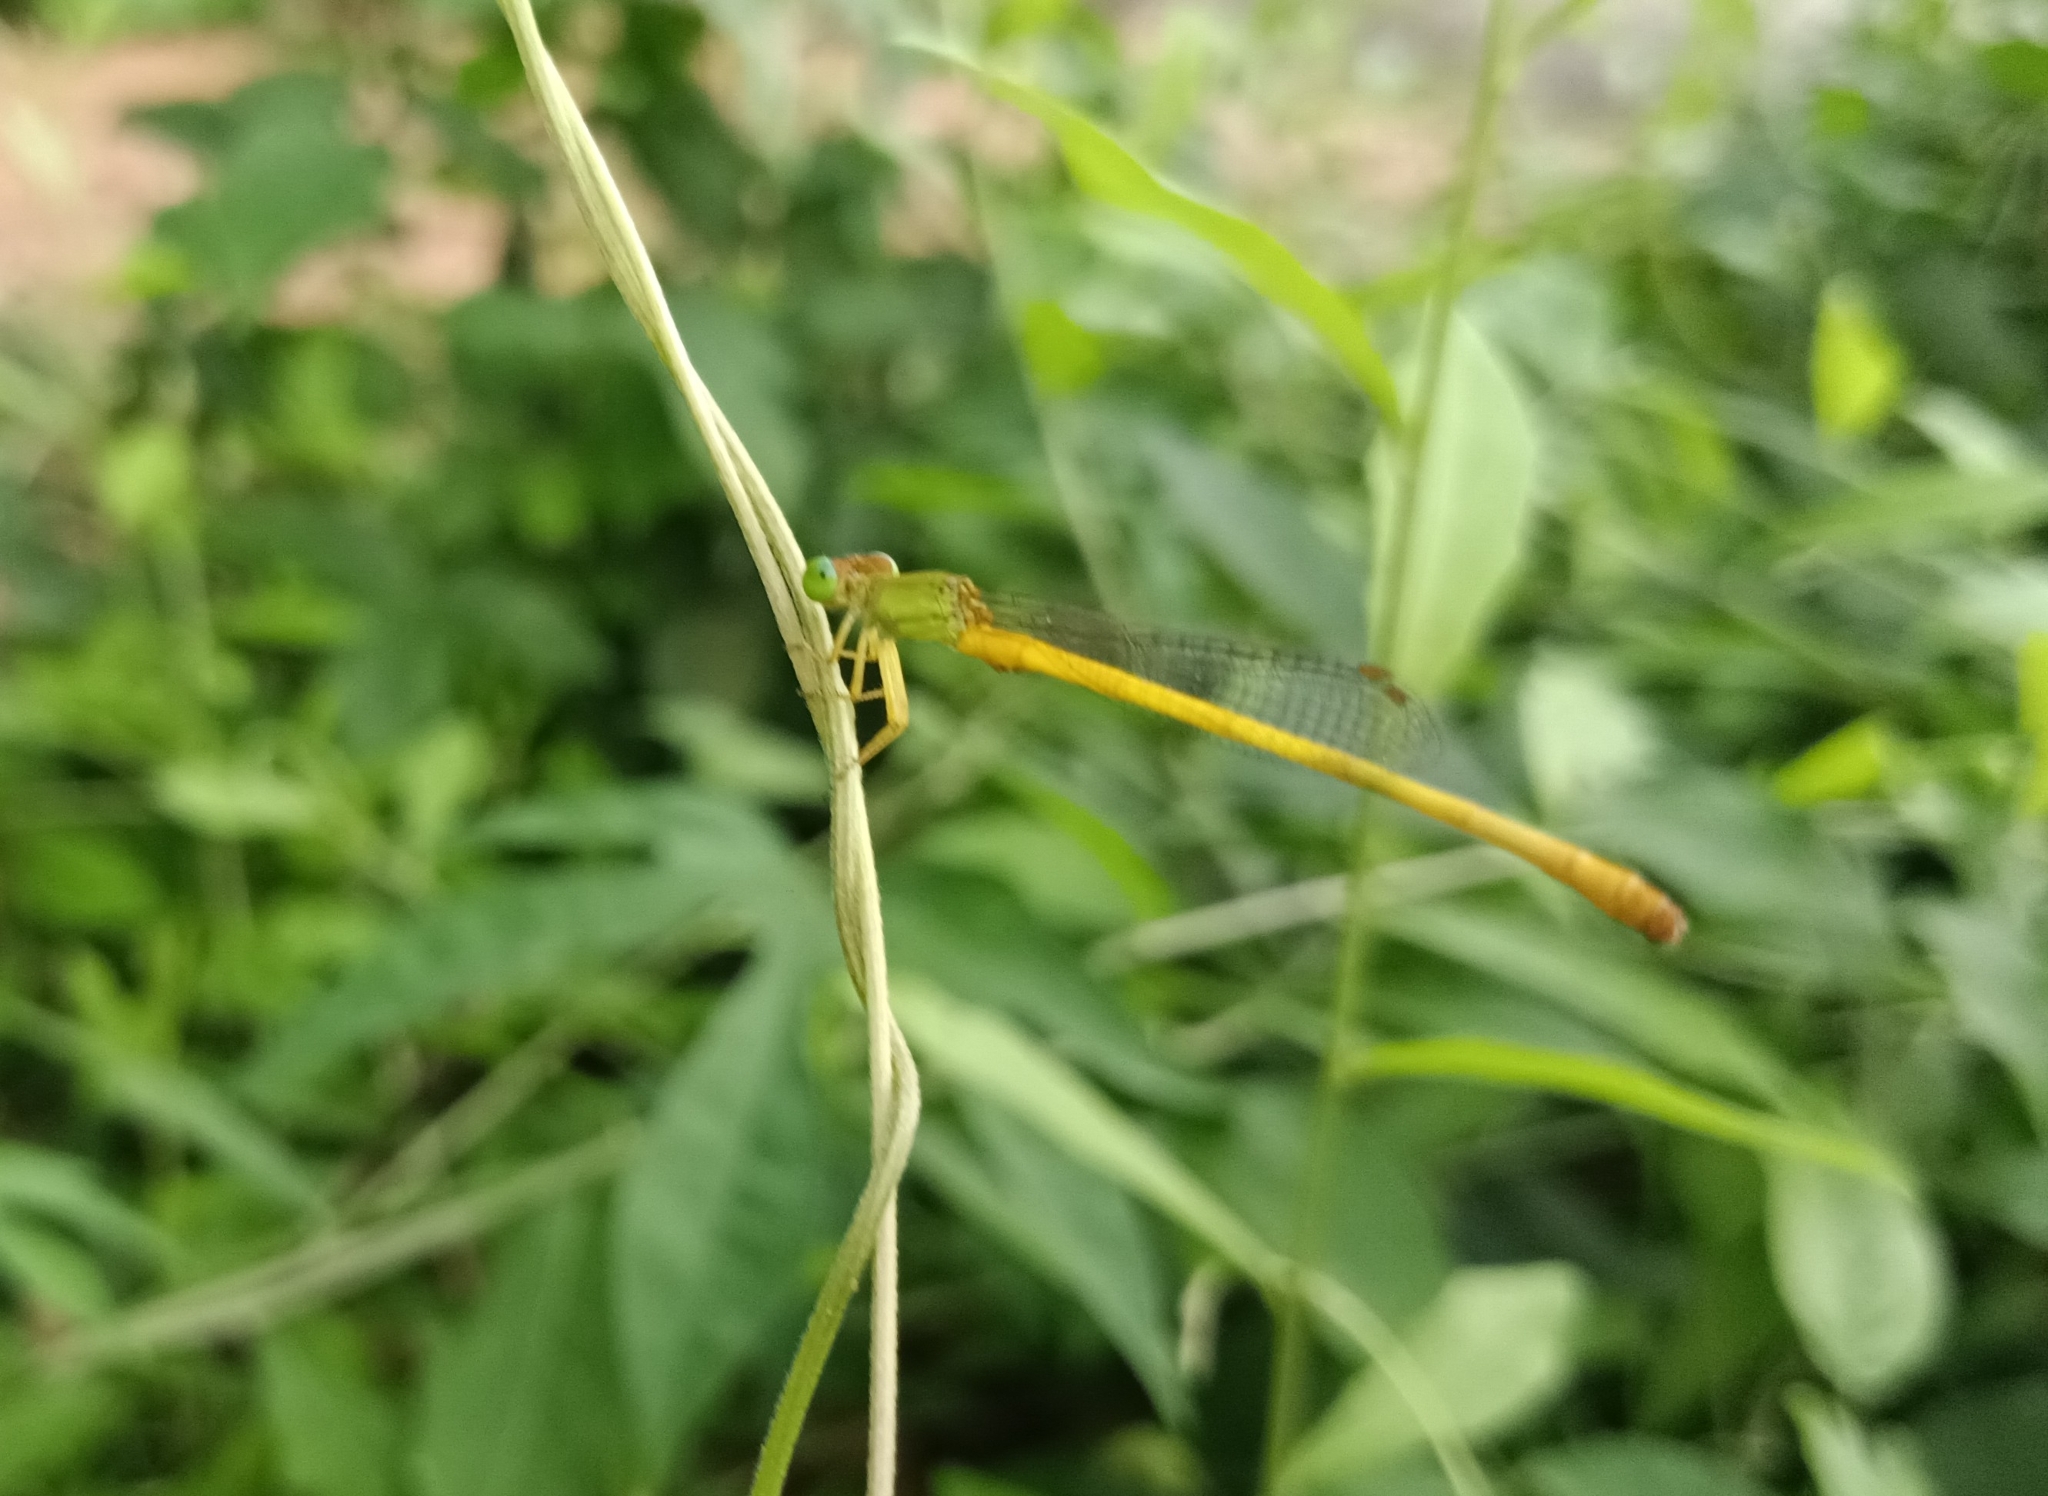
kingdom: Animalia
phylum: Arthropoda
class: Insecta
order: Odonata
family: Coenagrionidae
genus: Ceriagrion
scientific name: Ceriagrion coromandelianum
